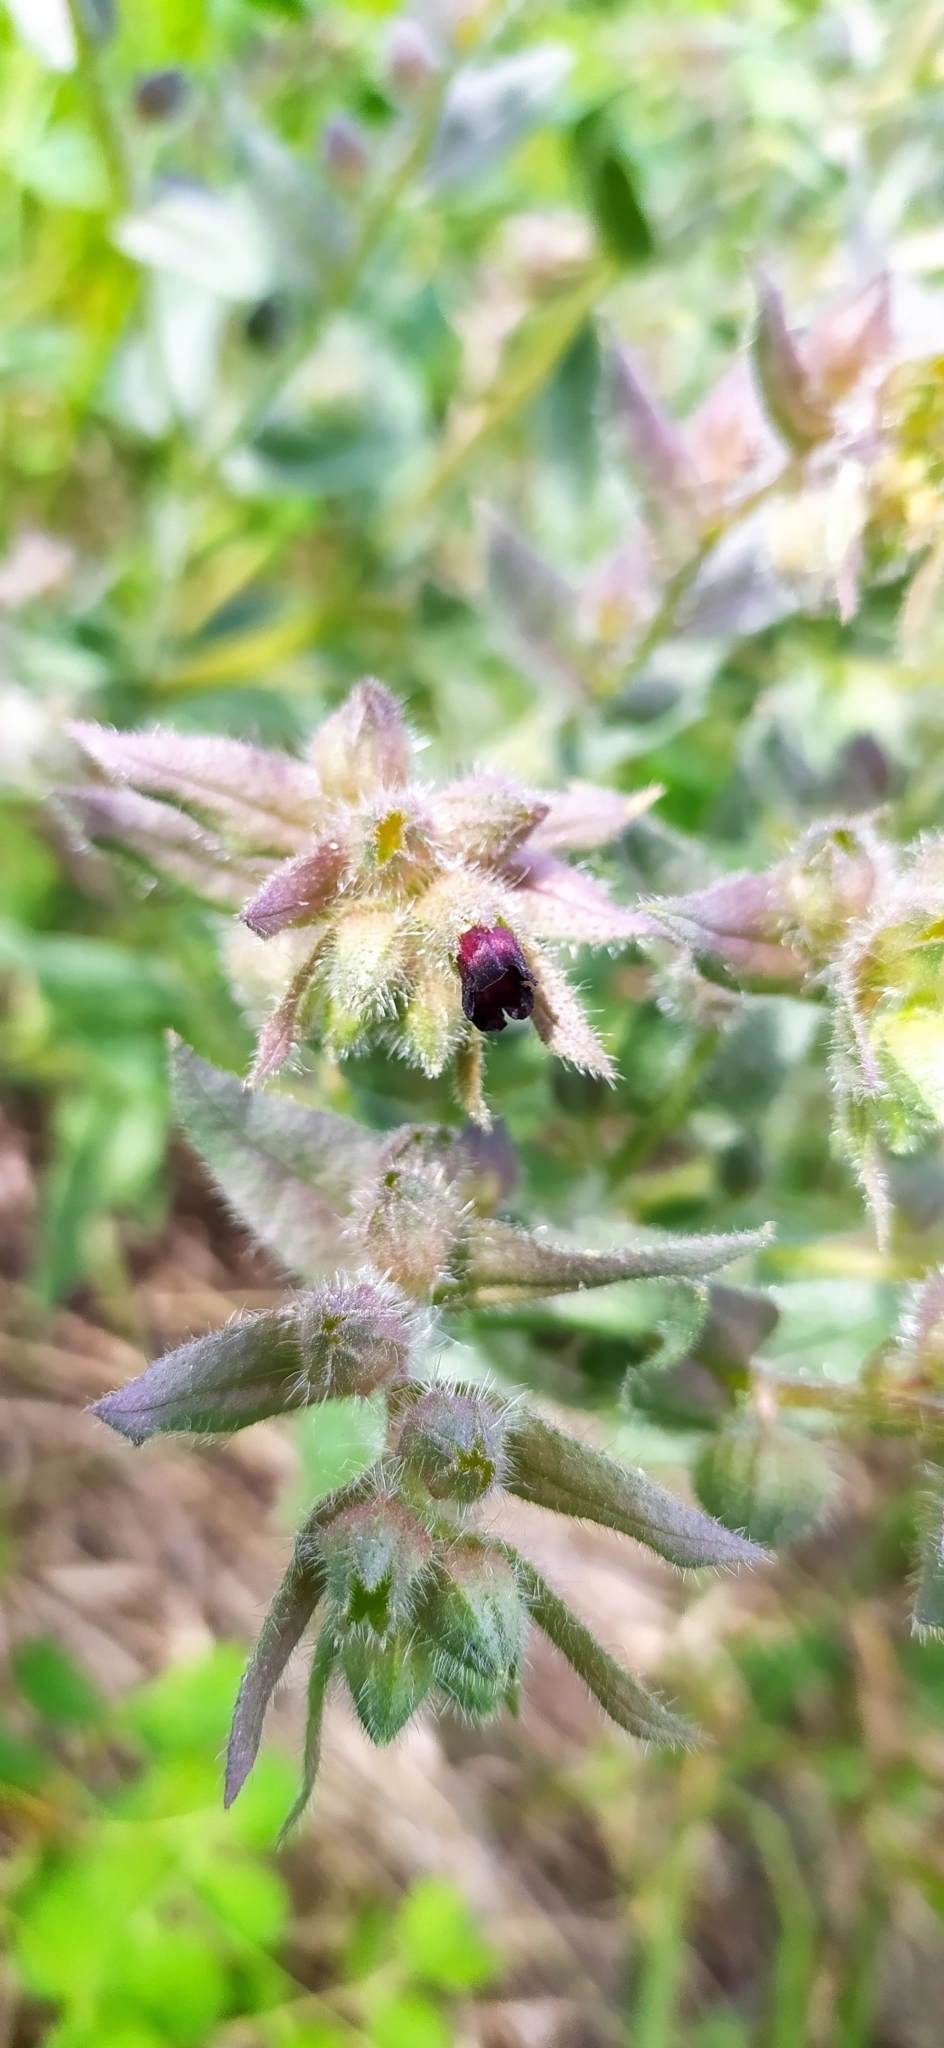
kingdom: Plantae
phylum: Tracheophyta
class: Magnoliopsida
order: Boraginales
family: Boraginaceae
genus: Nonea
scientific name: Nonea pulla
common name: Brown nonea
